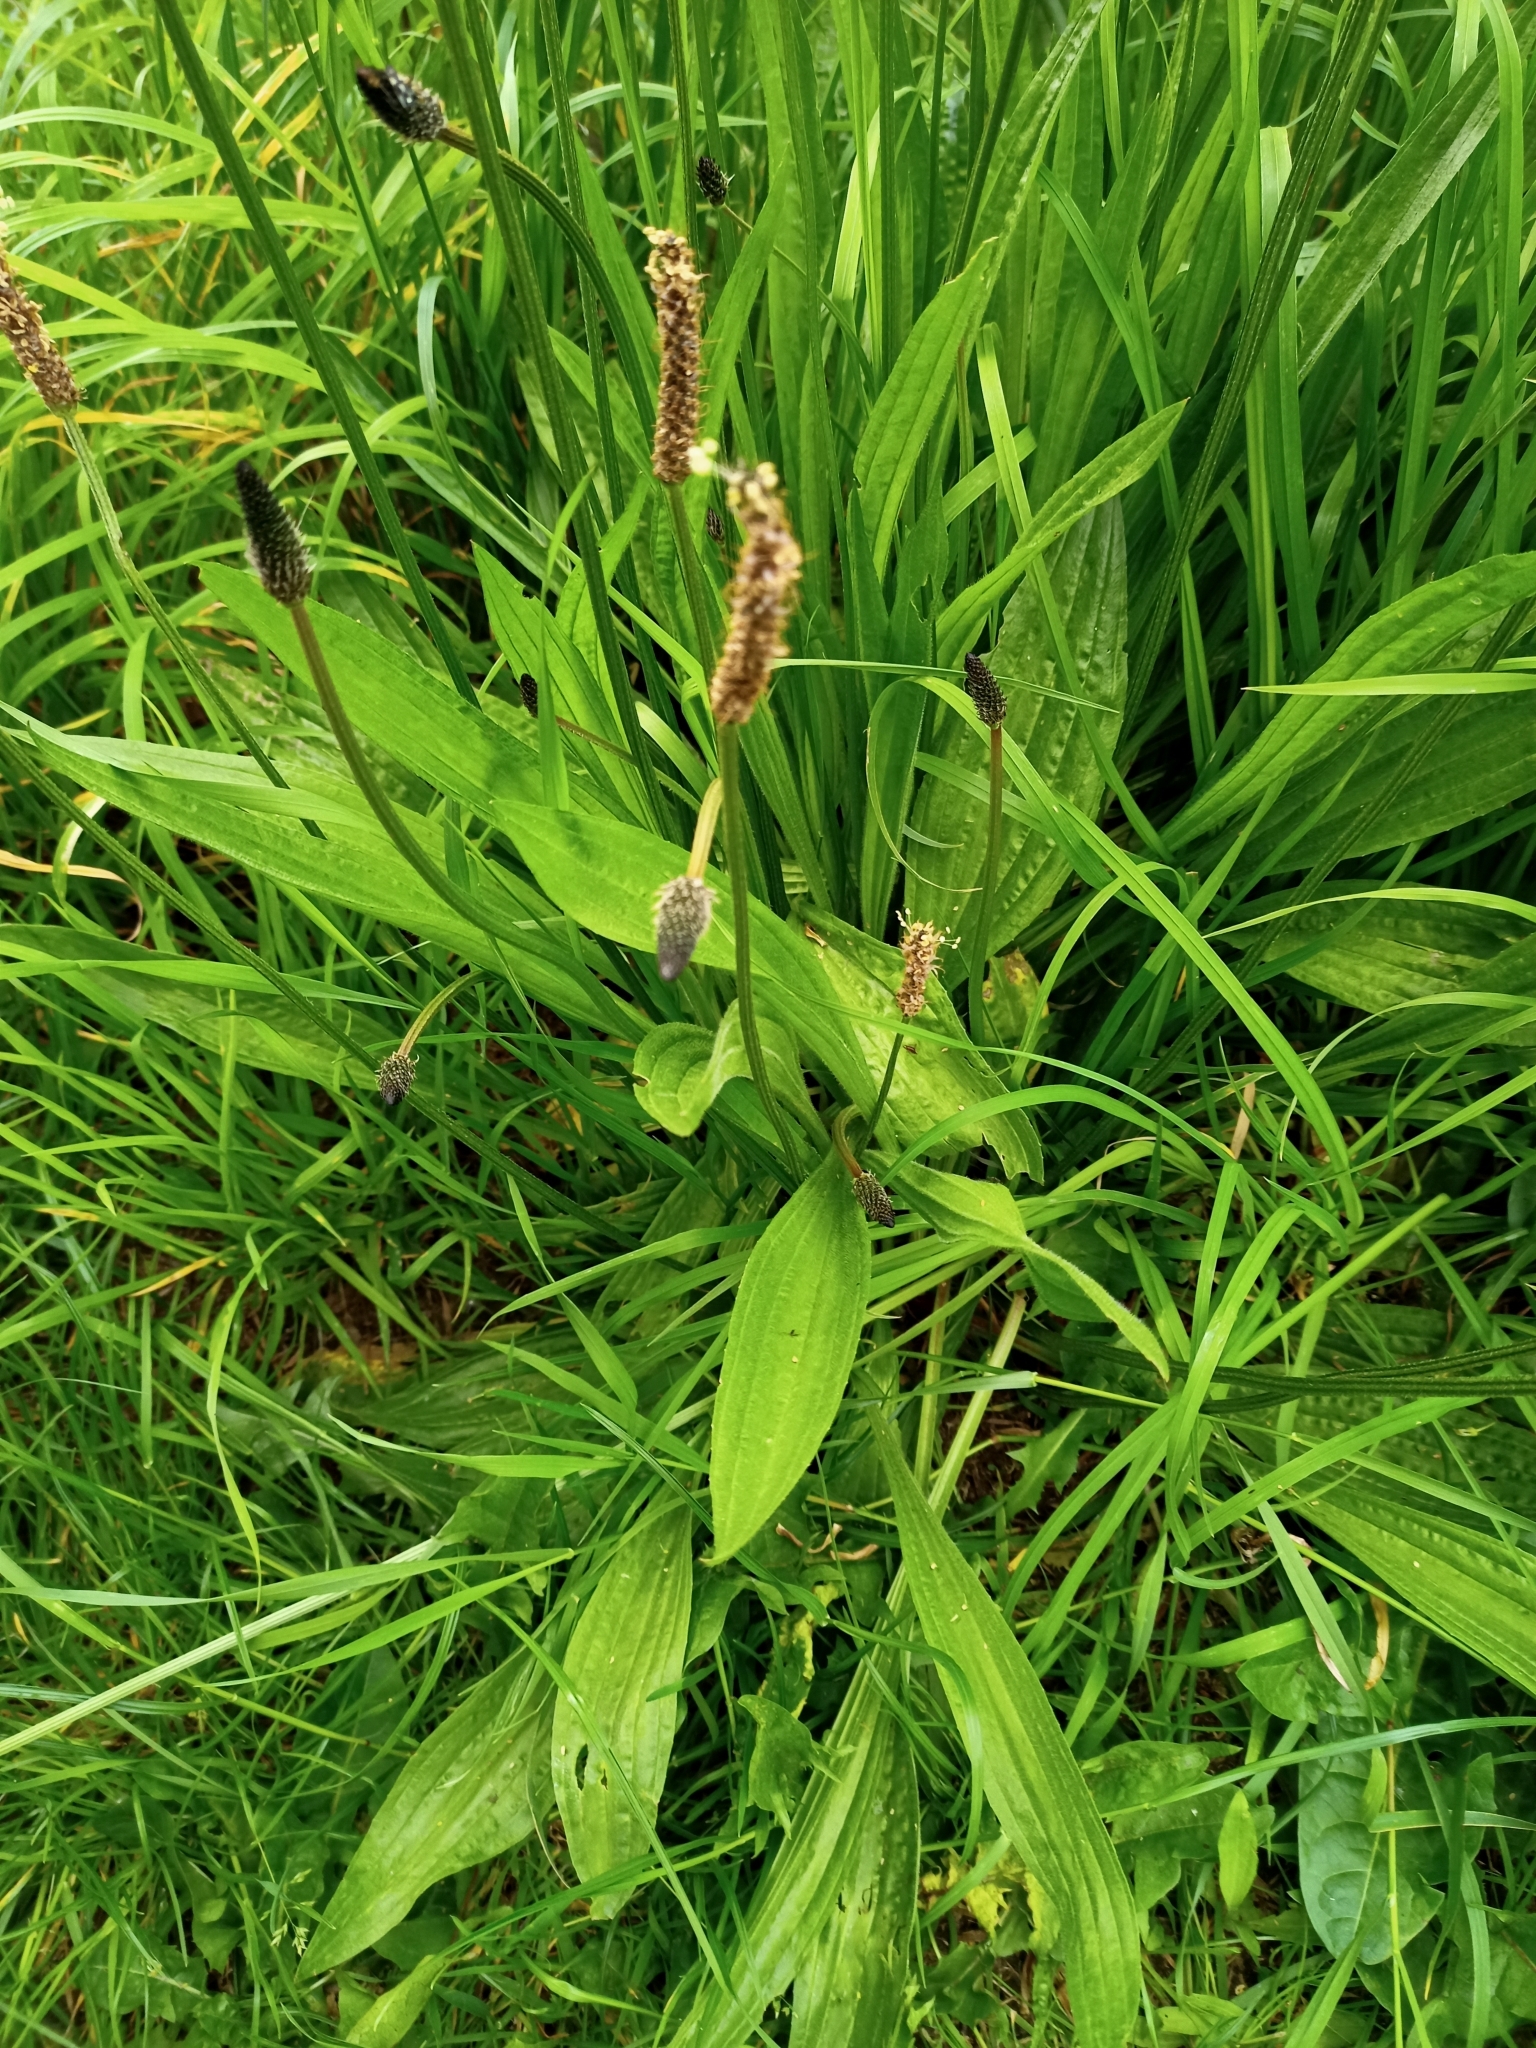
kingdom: Plantae
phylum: Tracheophyta
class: Magnoliopsida
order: Lamiales
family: Plantaginaceae
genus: Plantago
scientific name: Plantago lanceolata
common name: Ribwort plantain
